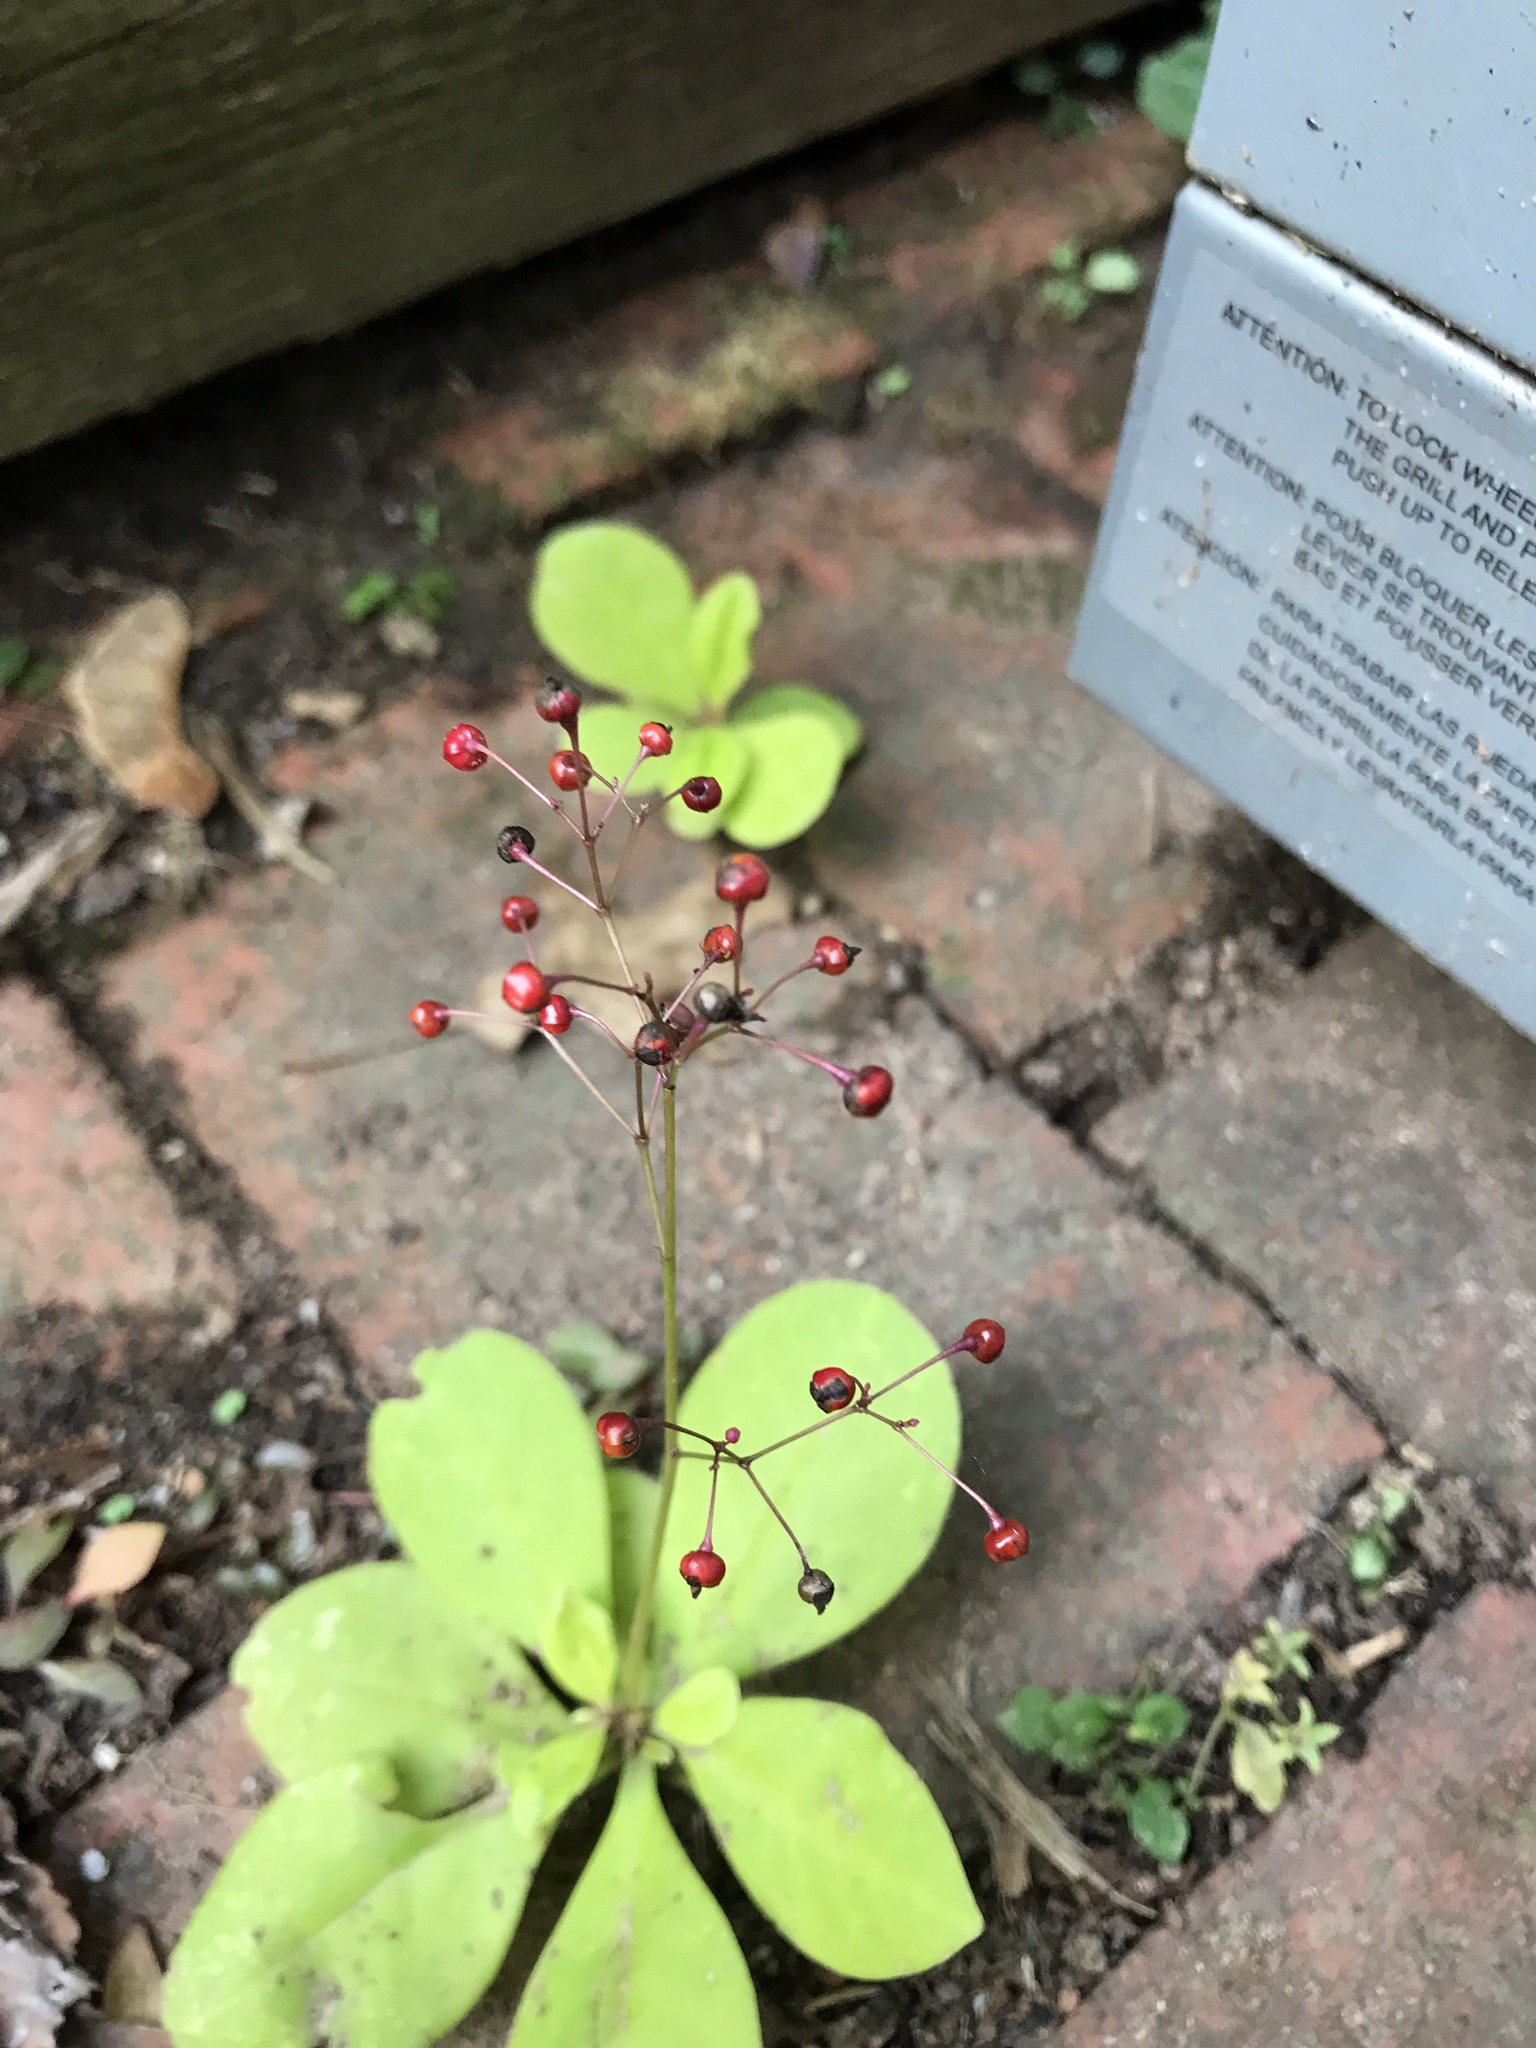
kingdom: Plantae
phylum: Tracheophyta
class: Magnoliopsida
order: Caryophyllales
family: Talinaceae
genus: Talinum
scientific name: Talinum paniculatum
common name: Jewels of opar
